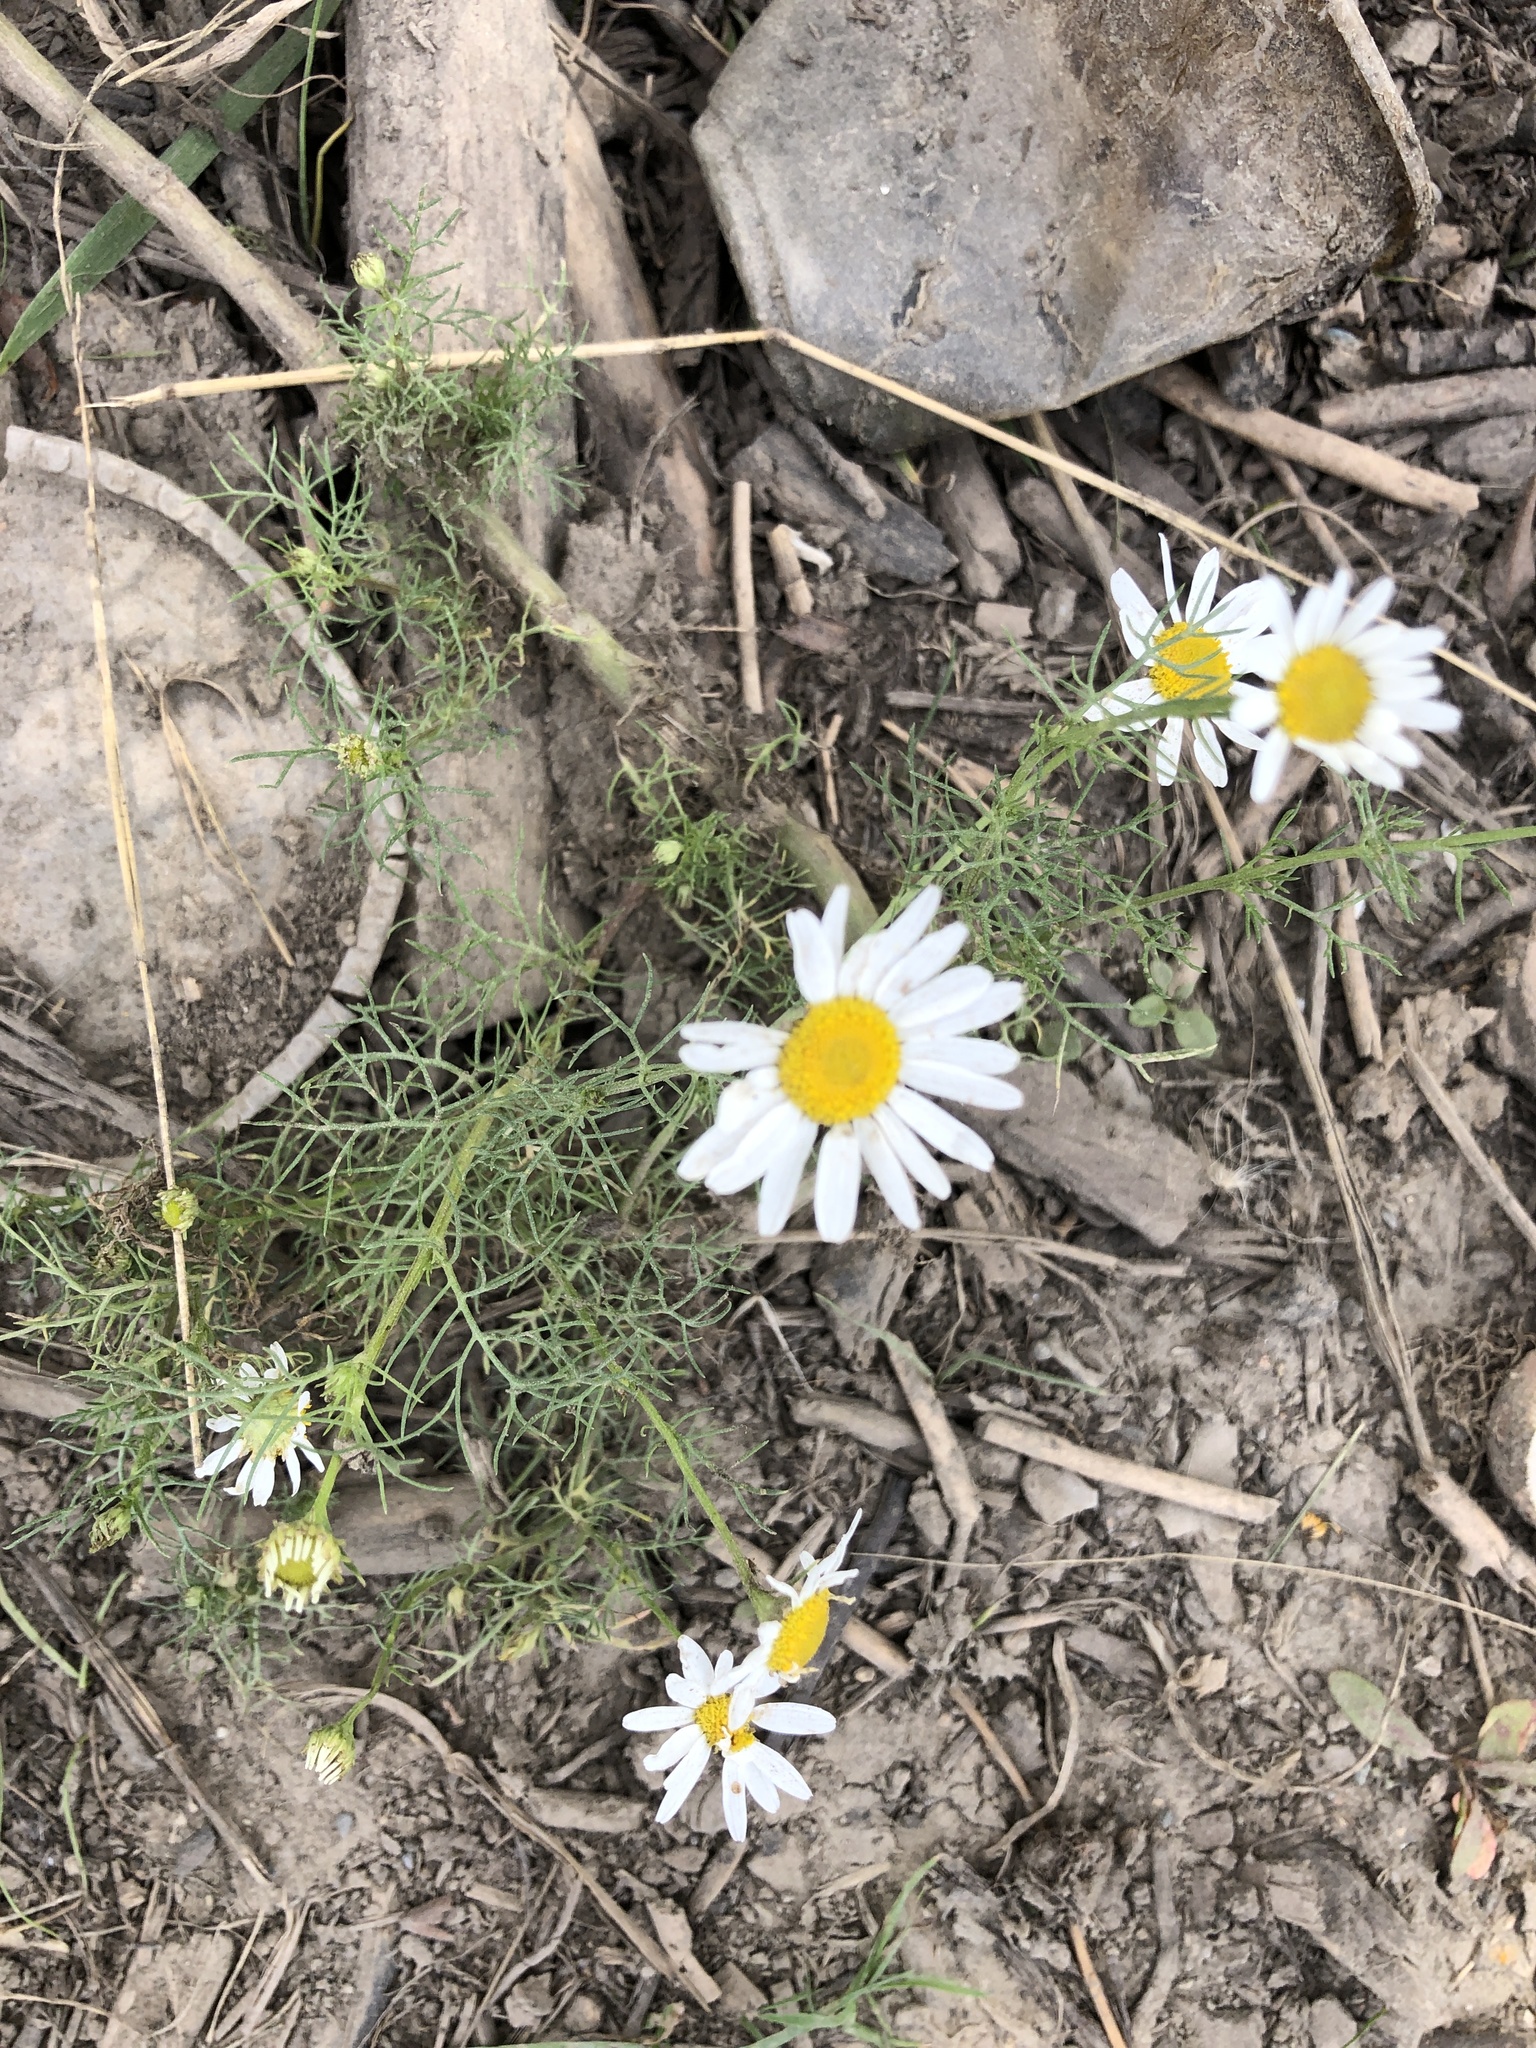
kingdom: Plantae
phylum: Tracheophyta
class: Magnoliopsida
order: Asterales
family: Asteraceae
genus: Tripleurospermum
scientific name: Tripleurospermum inodorum
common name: Scentless mayweed
